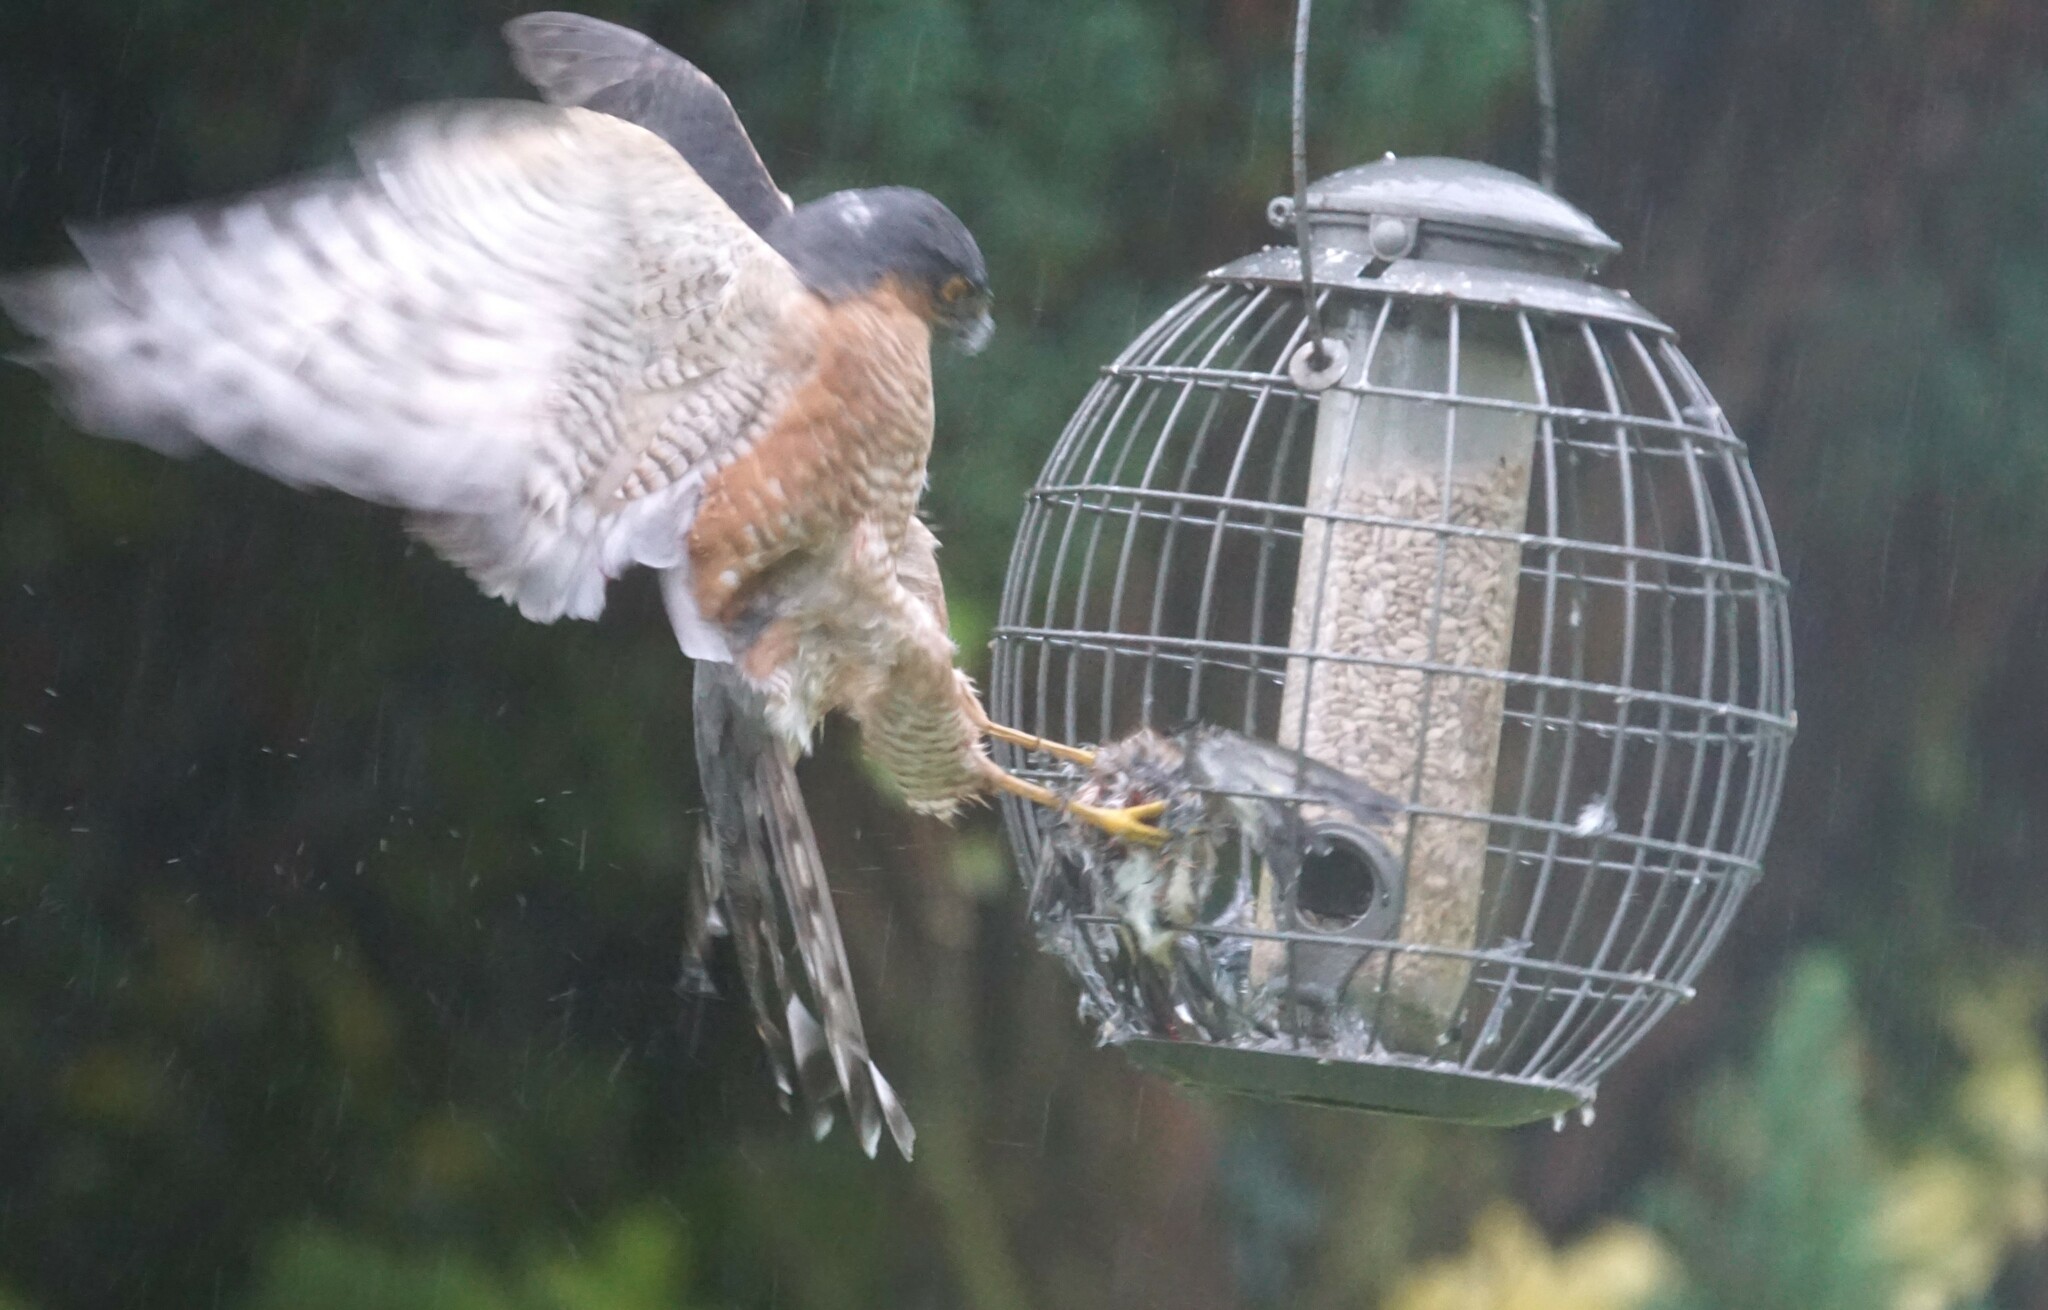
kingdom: Animalia
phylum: Chordata
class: Aves
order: Accipitriformes
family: Accipitridae
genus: Accipiter
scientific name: Accipiter nisus
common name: Eurasian sparrowhawk
